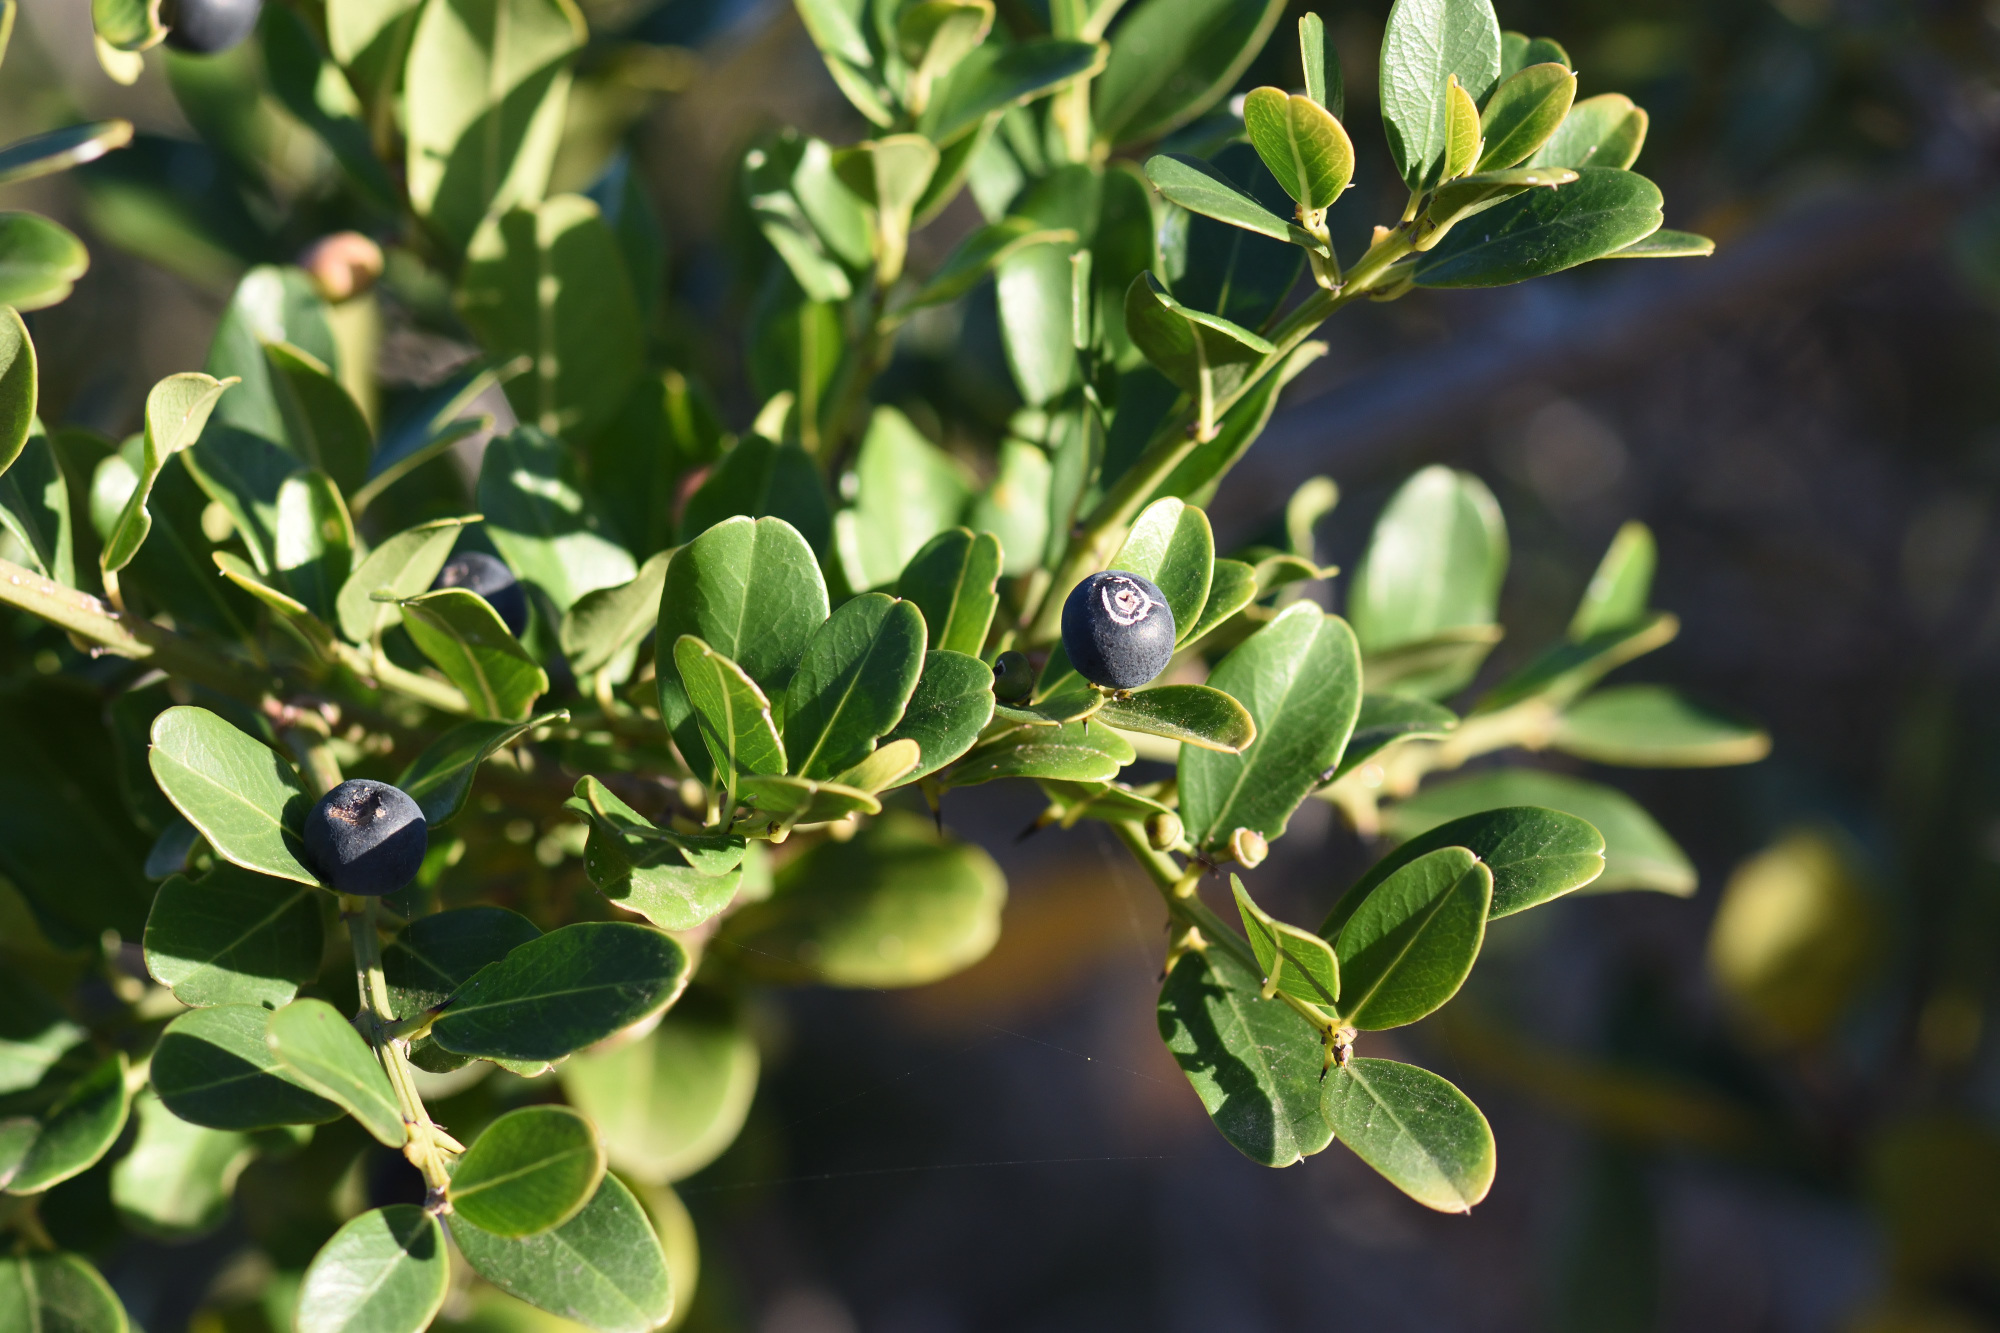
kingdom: Plantae
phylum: Tracheophyta
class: Magnoliopsida
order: Rosales
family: Rhamnaceae
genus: Scutia
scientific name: Scutia myrtina
